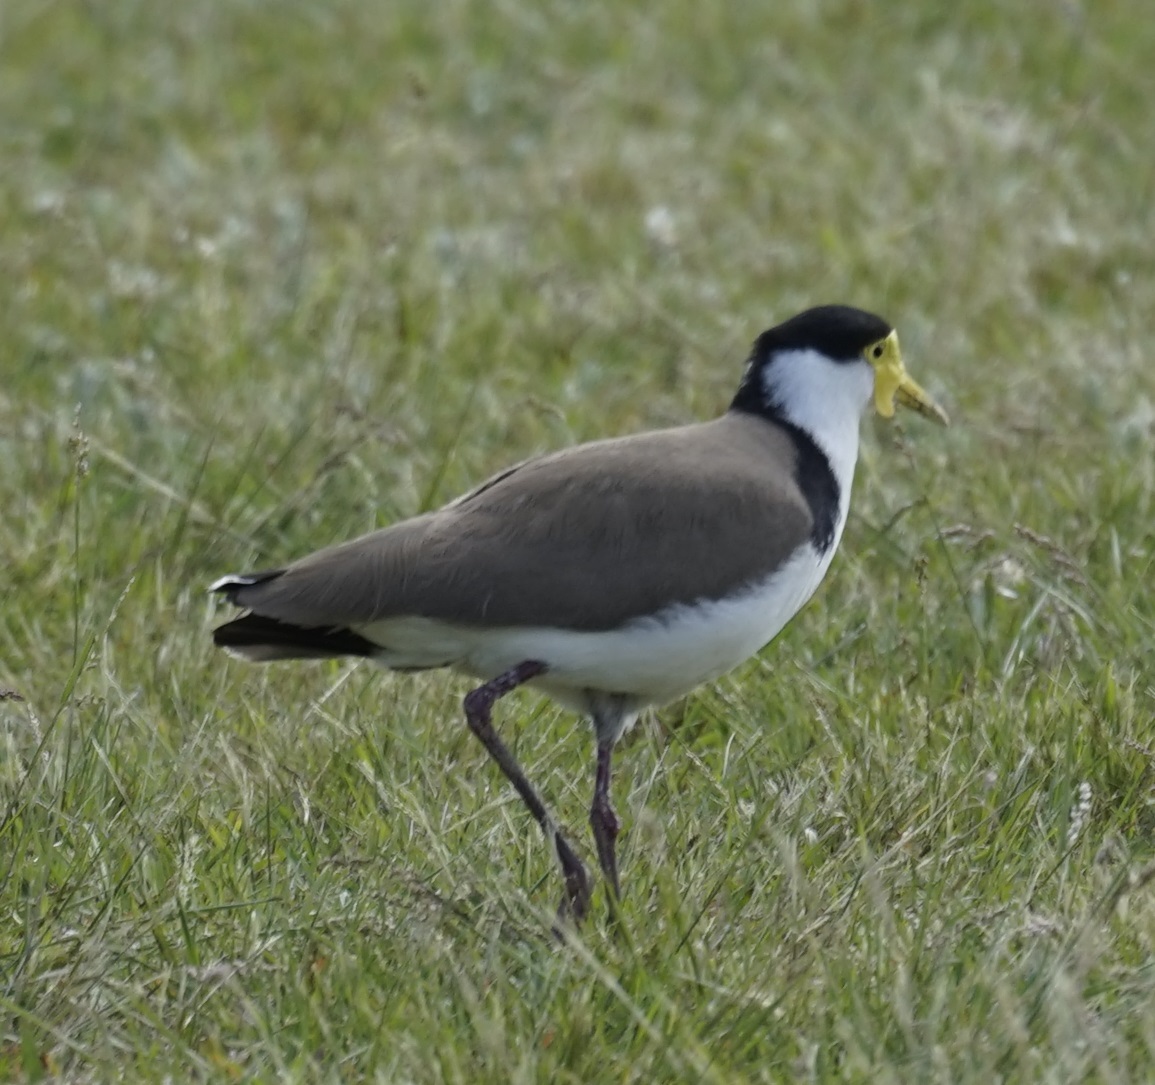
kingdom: Animalia
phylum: Chordata
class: Aves
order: Charadriiformes
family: Charadriidae
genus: Vanellus
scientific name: Vanellus miles
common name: Masked lapwing
